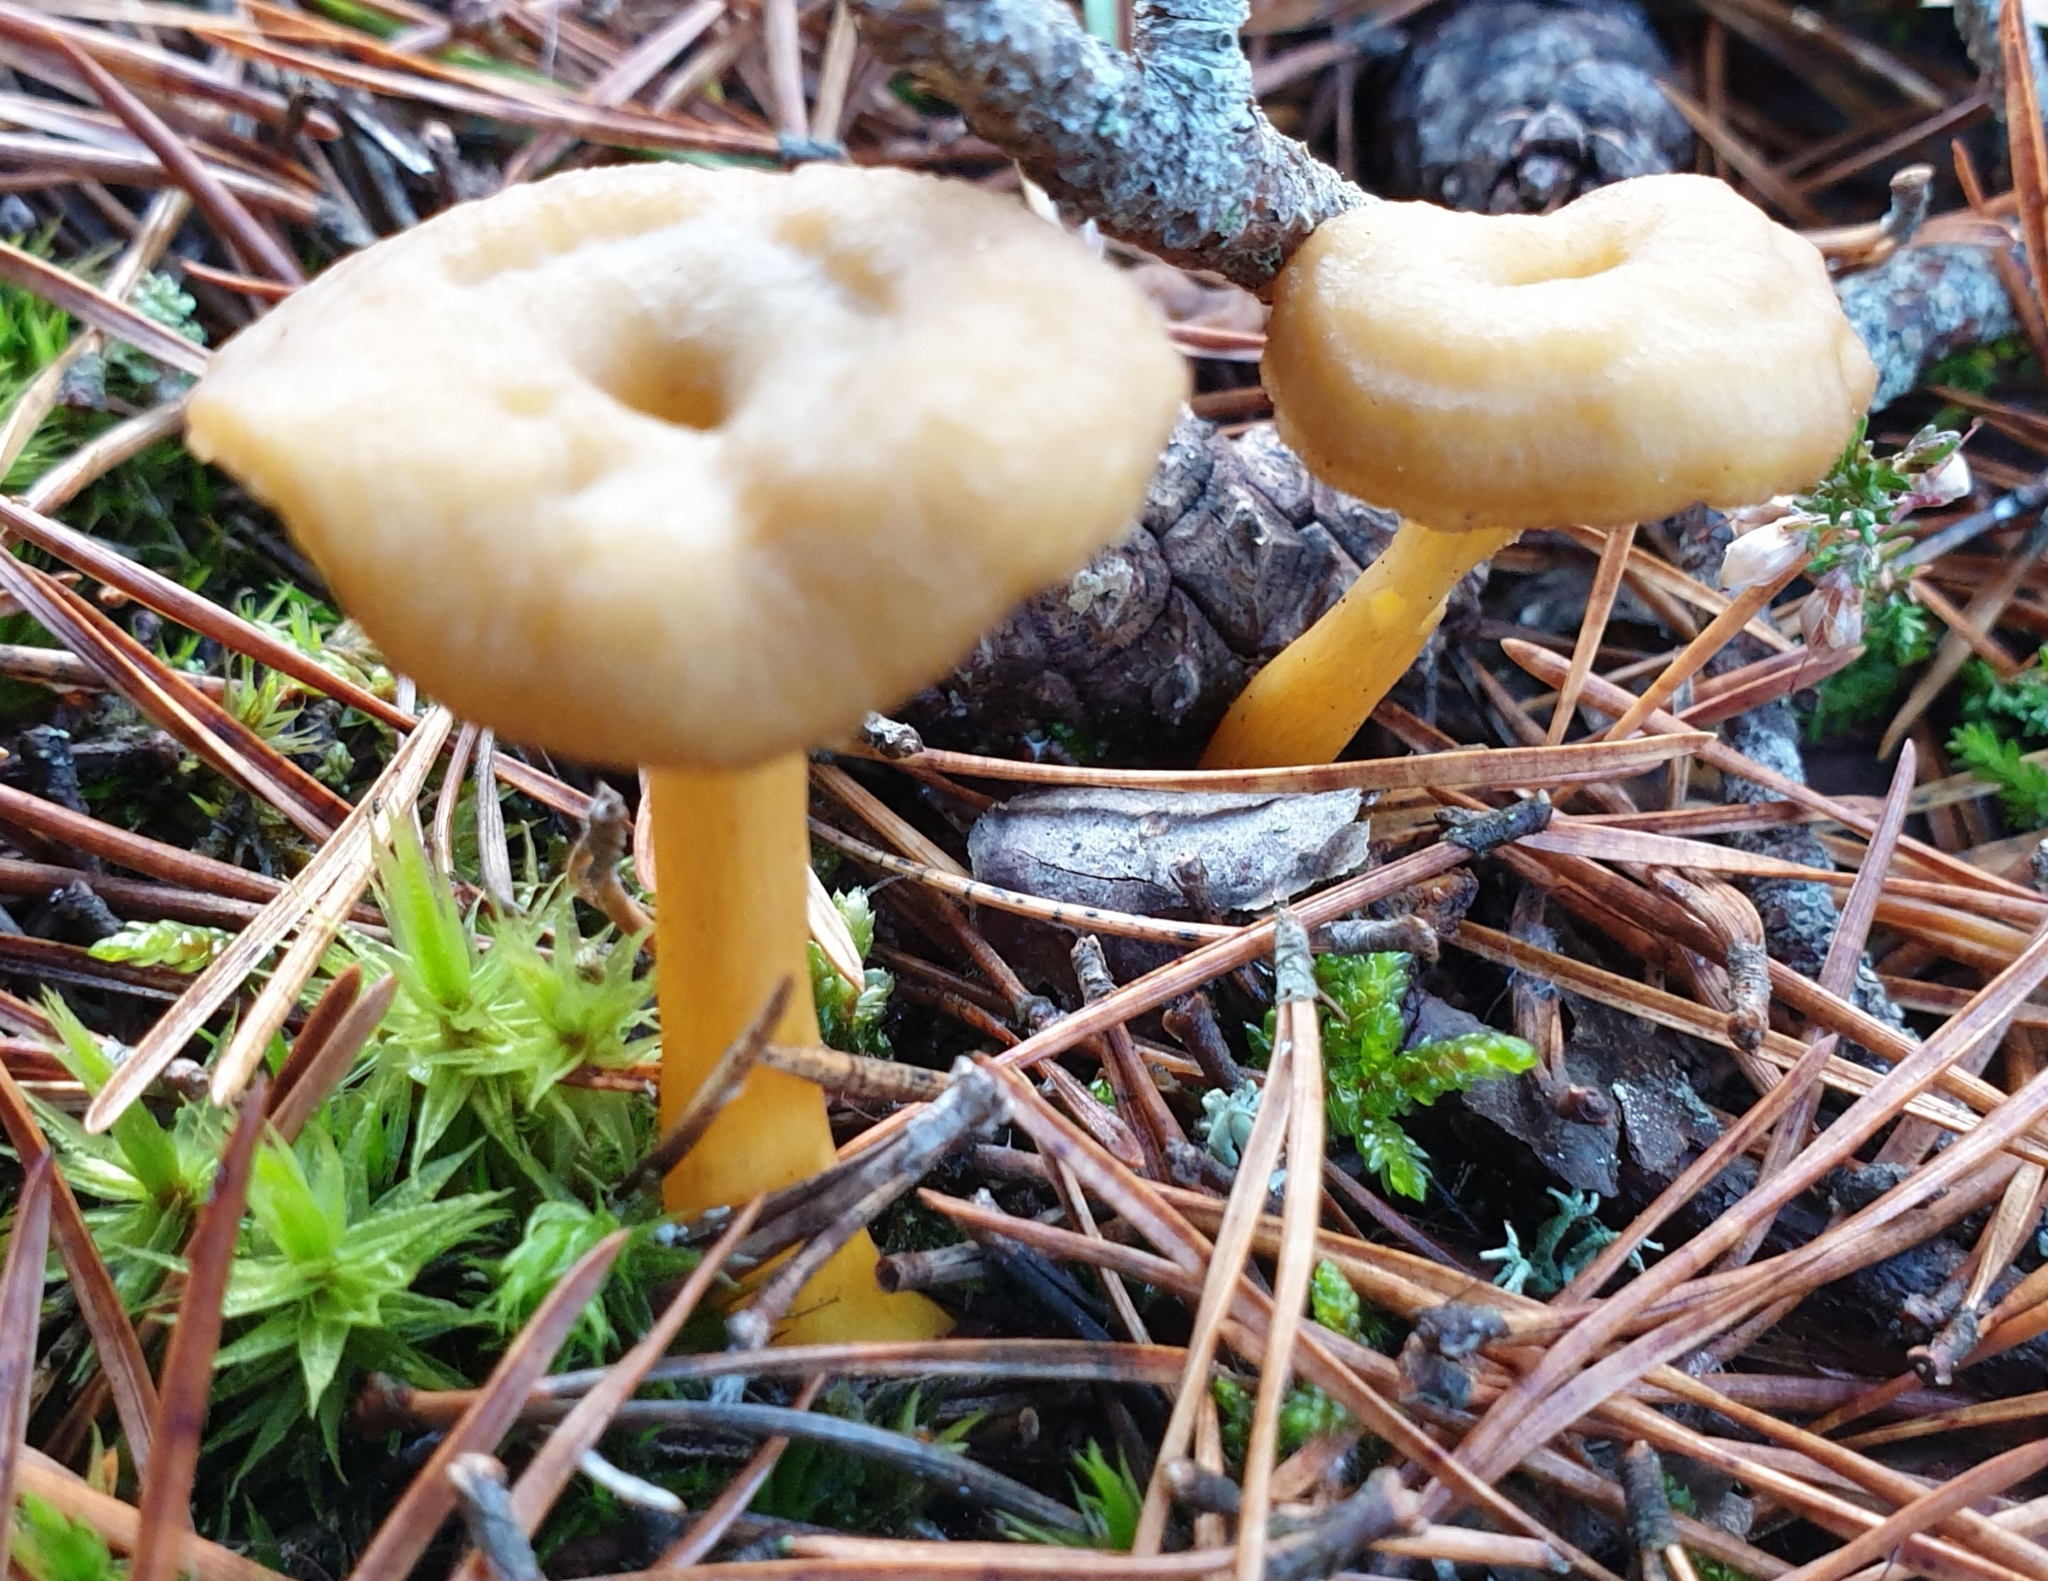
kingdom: Fungi
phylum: Basidiomycota
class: Agaricomycetes
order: Cantharellales
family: Hydnaceae
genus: Craterellus
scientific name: Craterellus tubaeformis
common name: Yellowfoot
